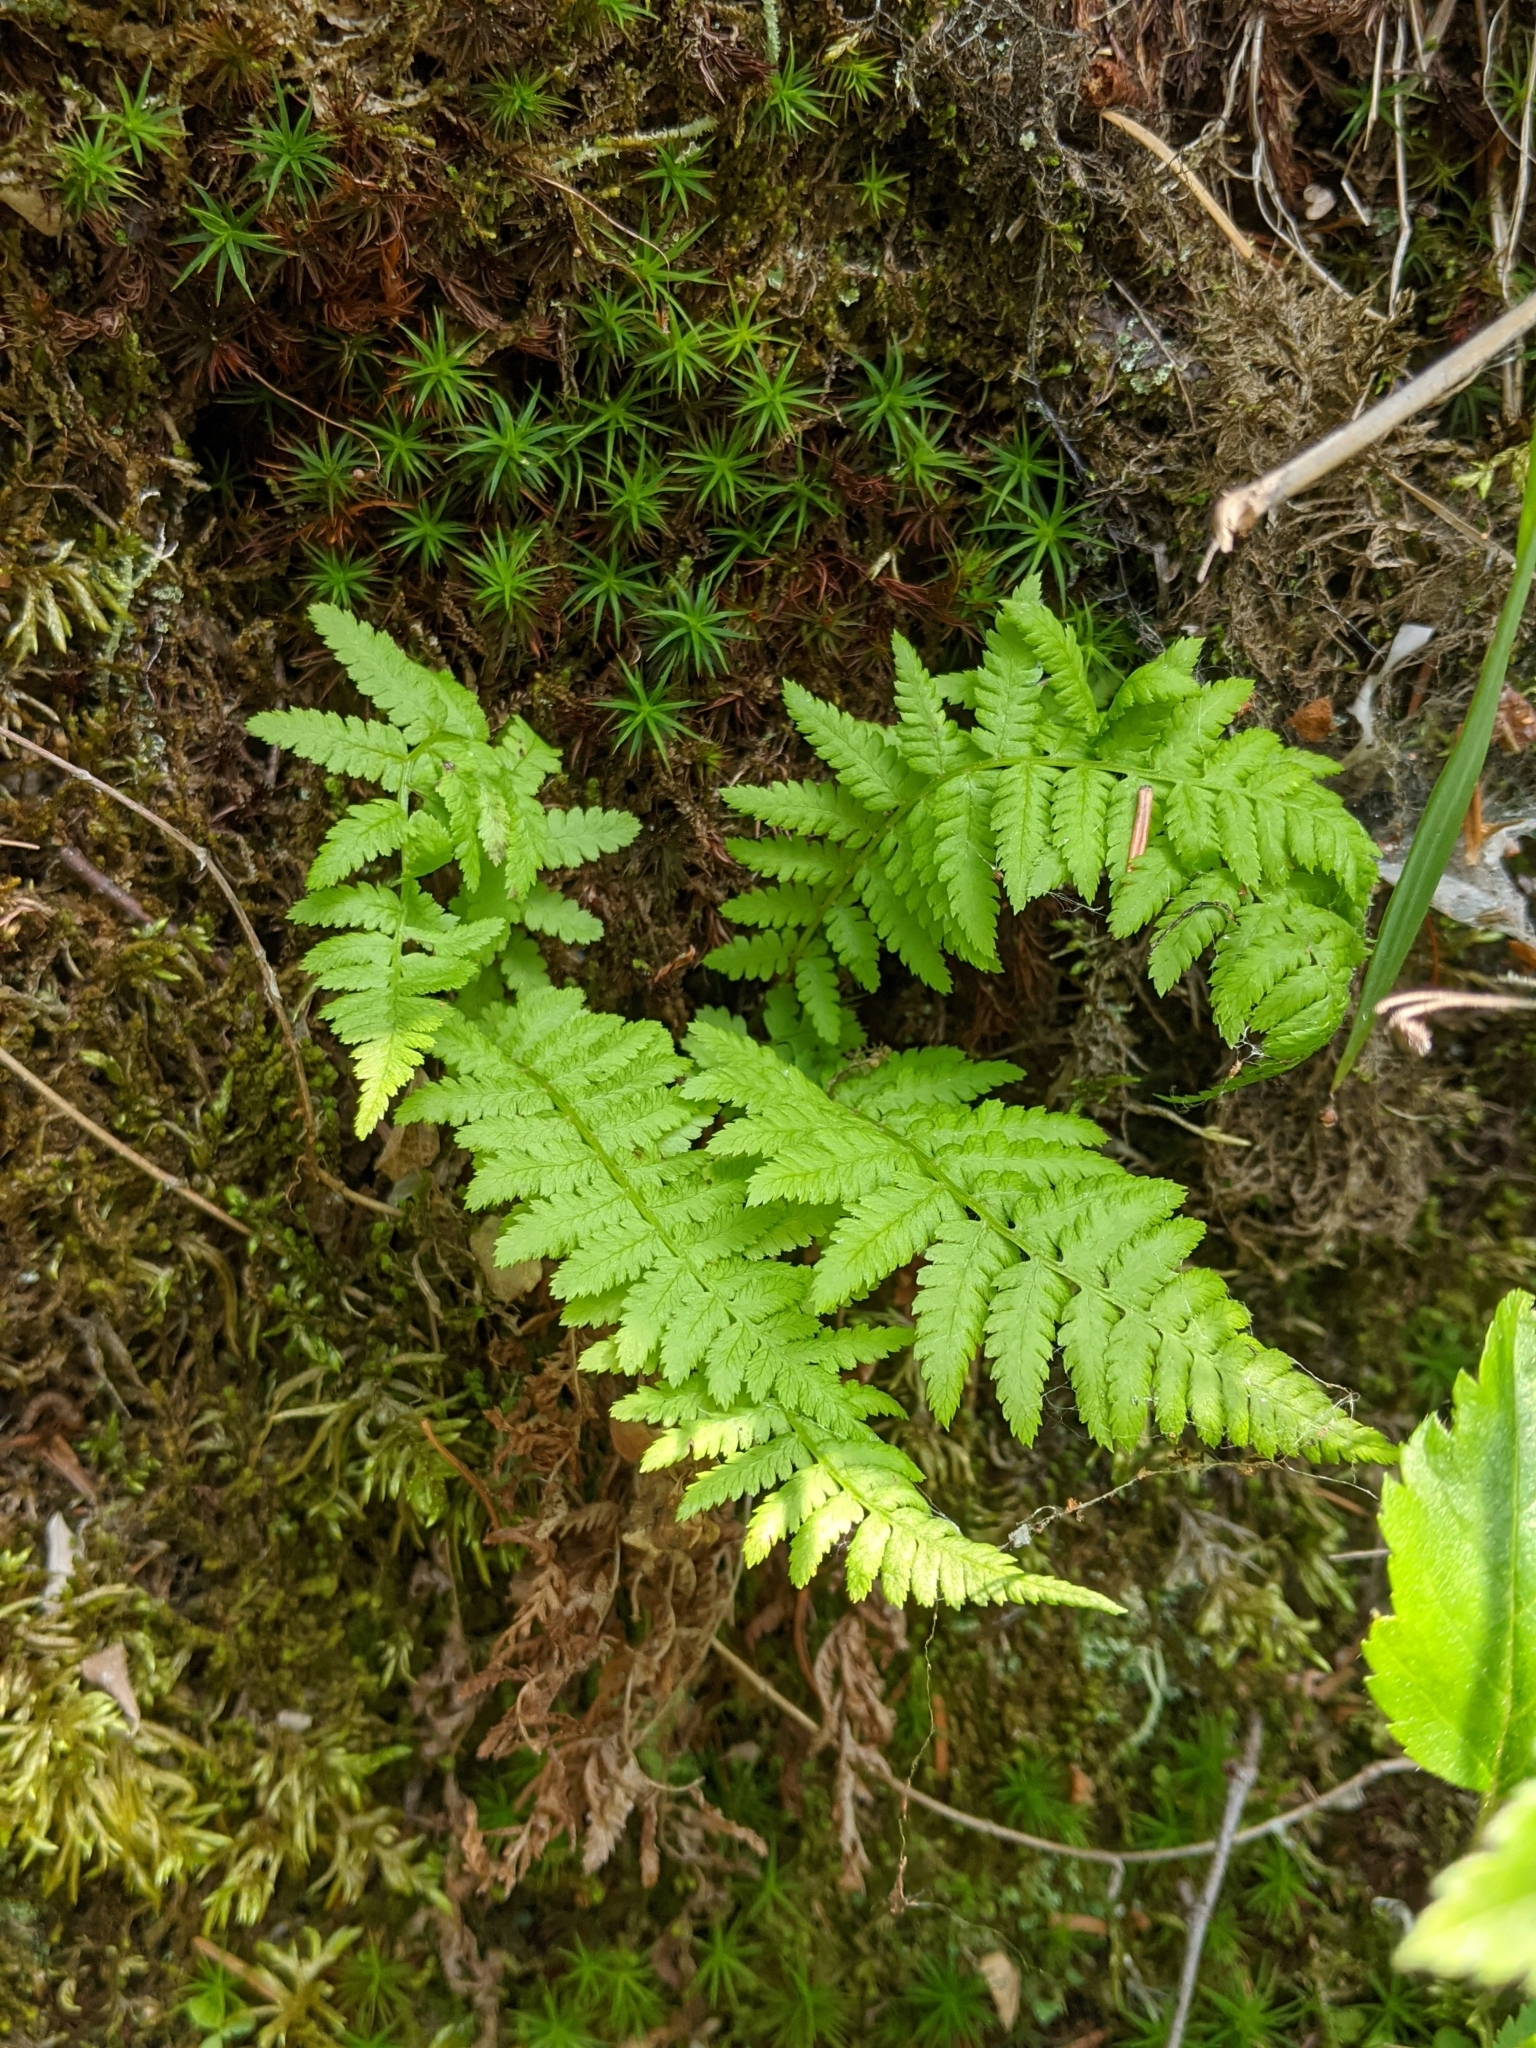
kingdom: Plantae
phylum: Tracheophyta
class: Polypodiopsida
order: Polypodiales
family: Athyriaceae
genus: Athyrium
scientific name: Athyrium angustum
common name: Northern lady fern
